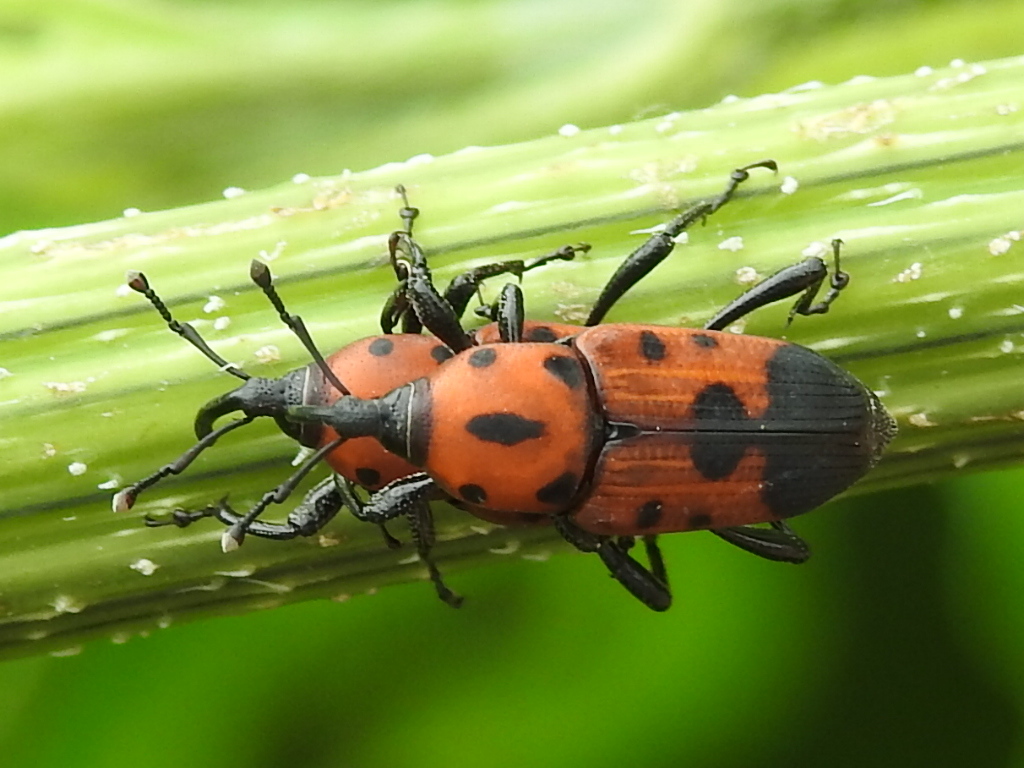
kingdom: Animalia
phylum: Arthropoda
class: Insecta
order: Coleoptera
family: Dryophthoridae
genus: Rhodobaenus
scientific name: Rhodobaenus quinquepunctatus
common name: Cocklebur weevil
